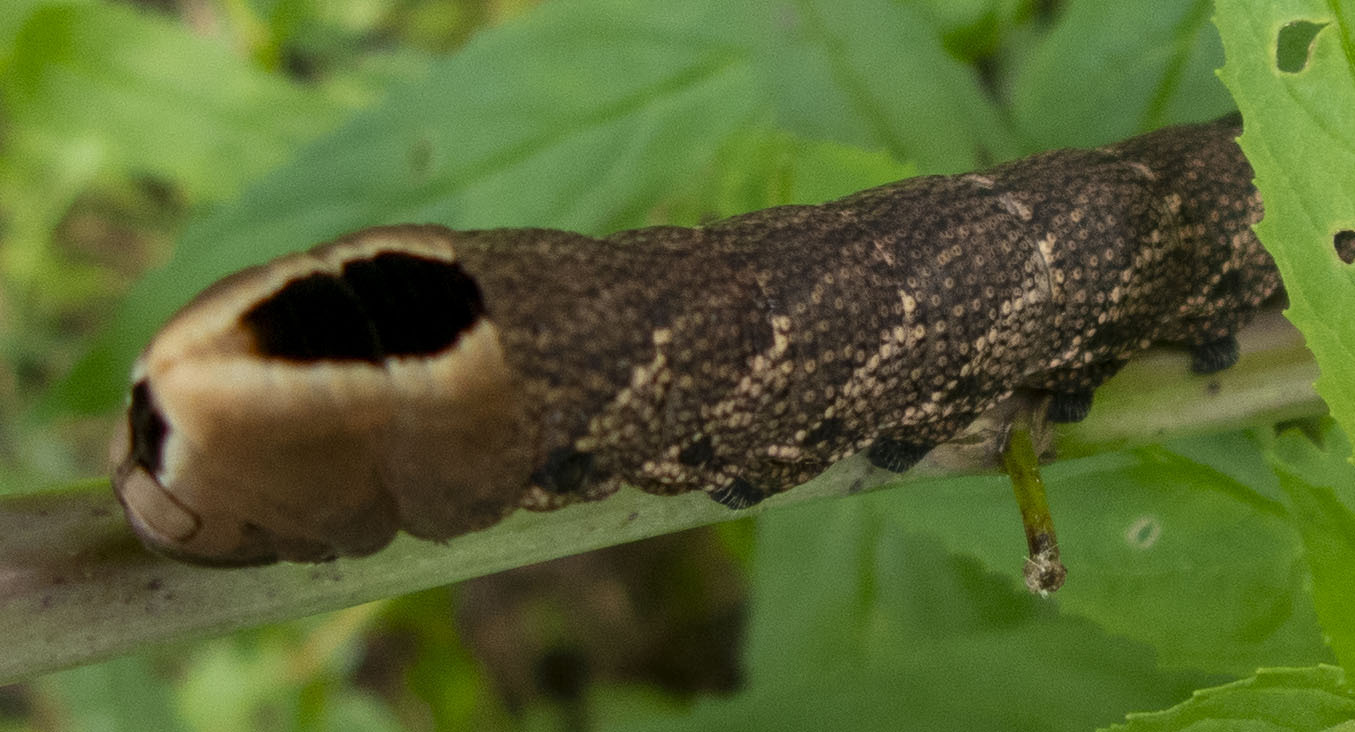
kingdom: Animalia
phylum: Arthropoda
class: Insecta
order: Lepidoptera
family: Sphingidae
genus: Lintneria
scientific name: Lintneria eremitus
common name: Hermit sphinx
